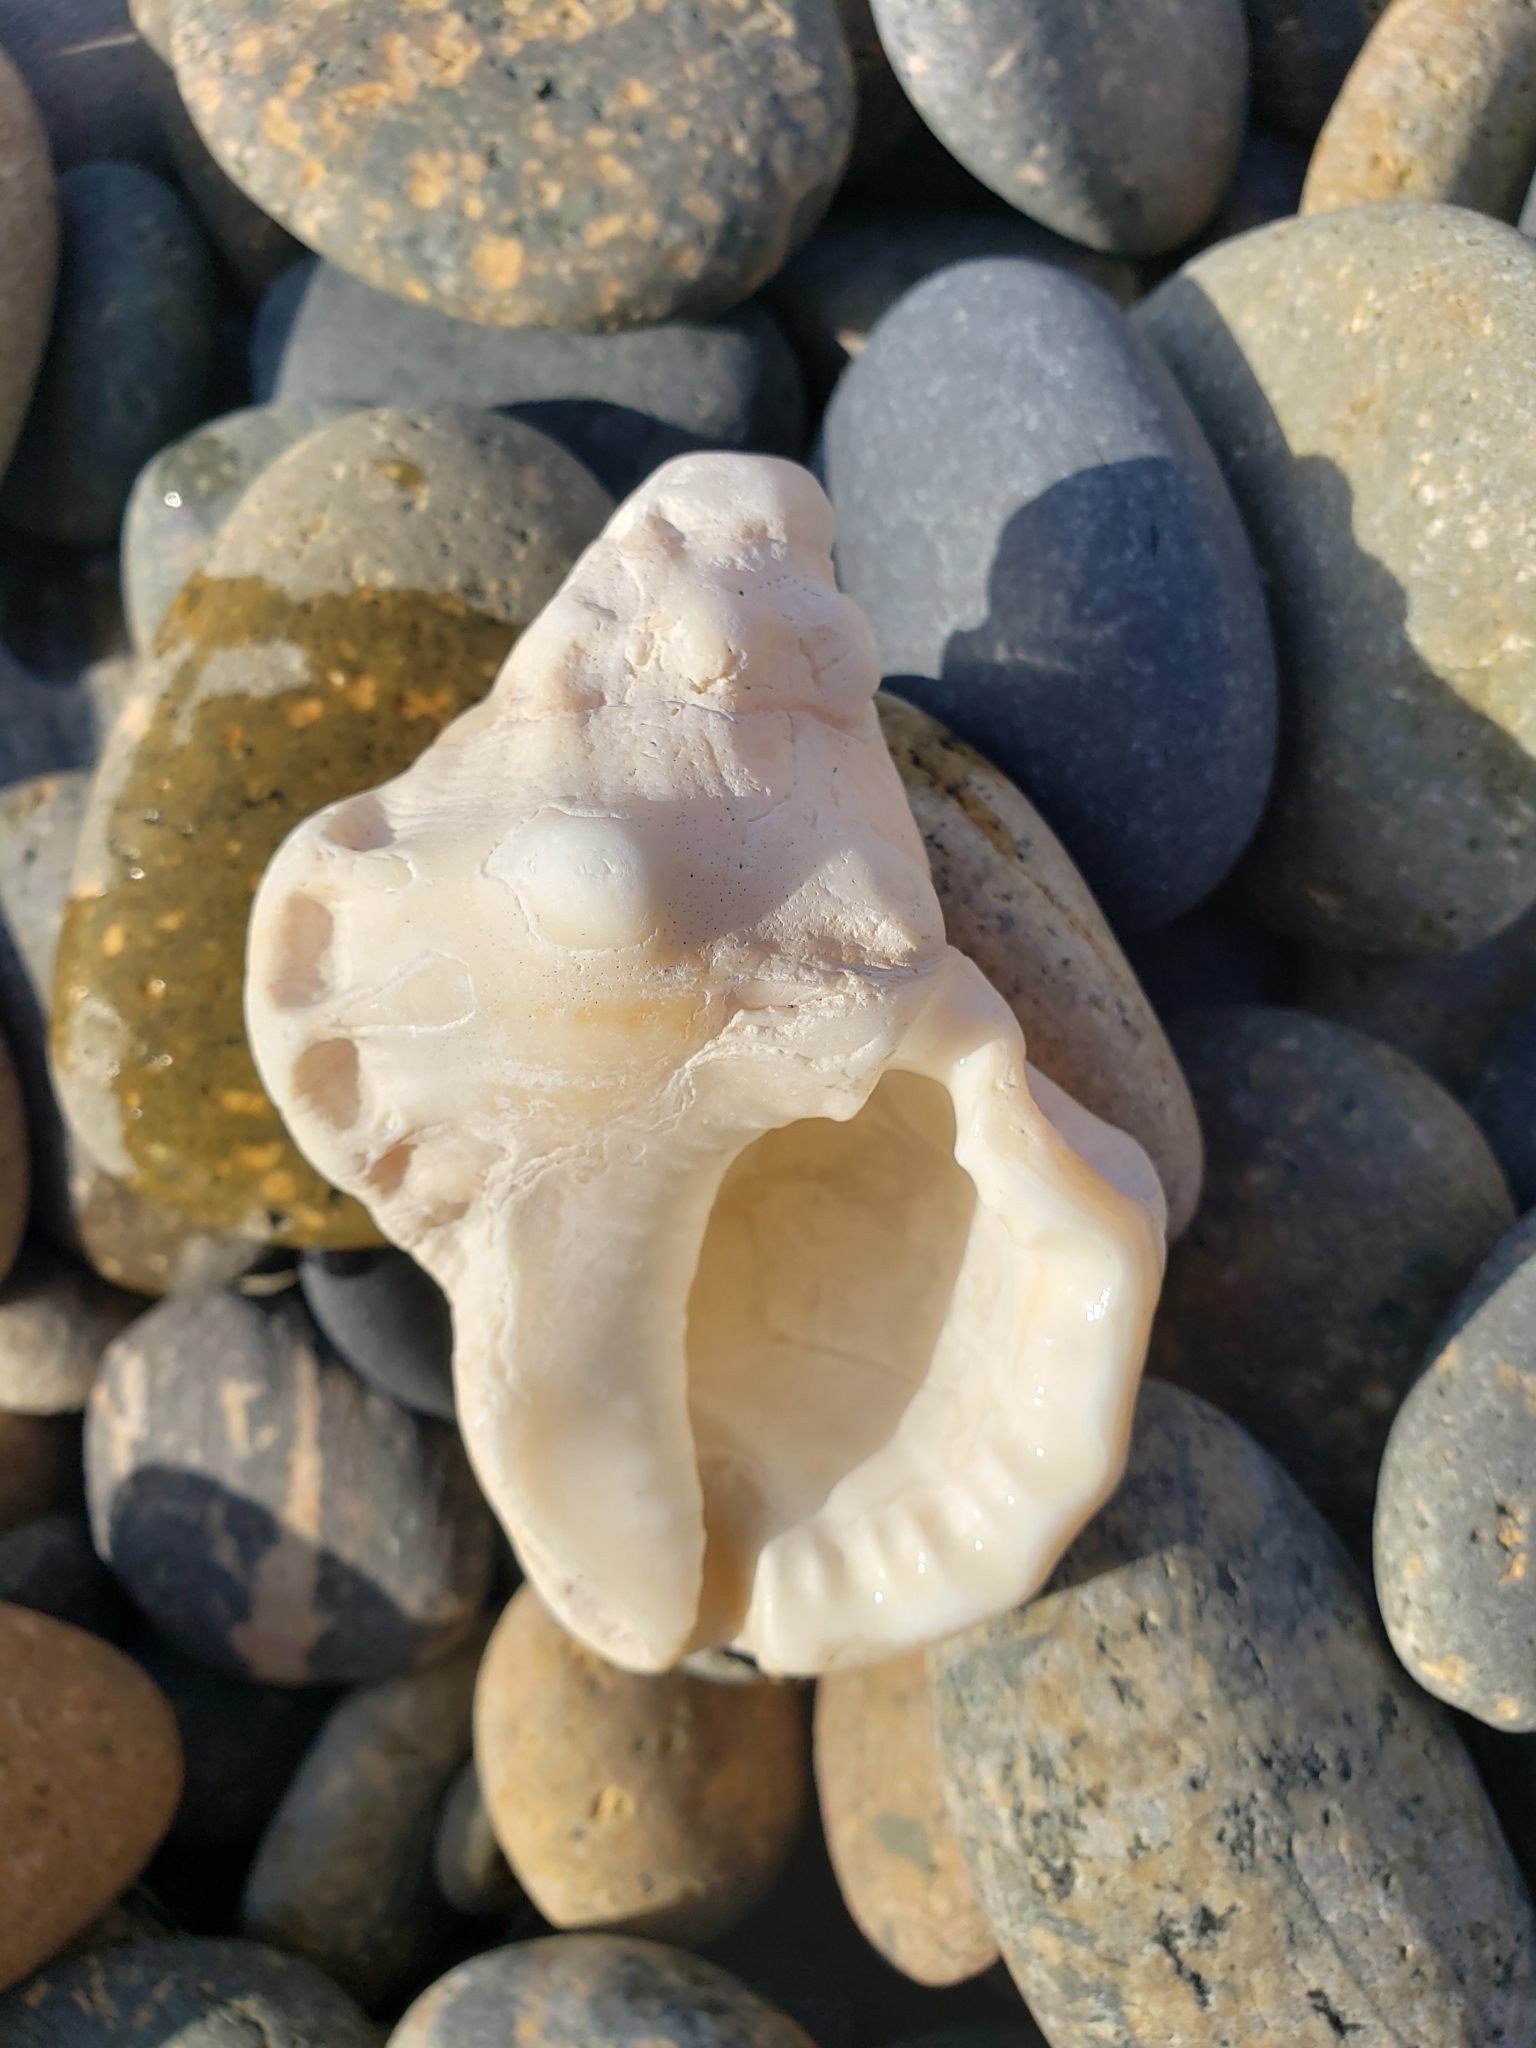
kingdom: Animalia
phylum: Mollusca
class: Gastropoda
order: Littorinimorpha
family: Bursidae
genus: Crossata
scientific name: Crossata californica
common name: California frogsnail
